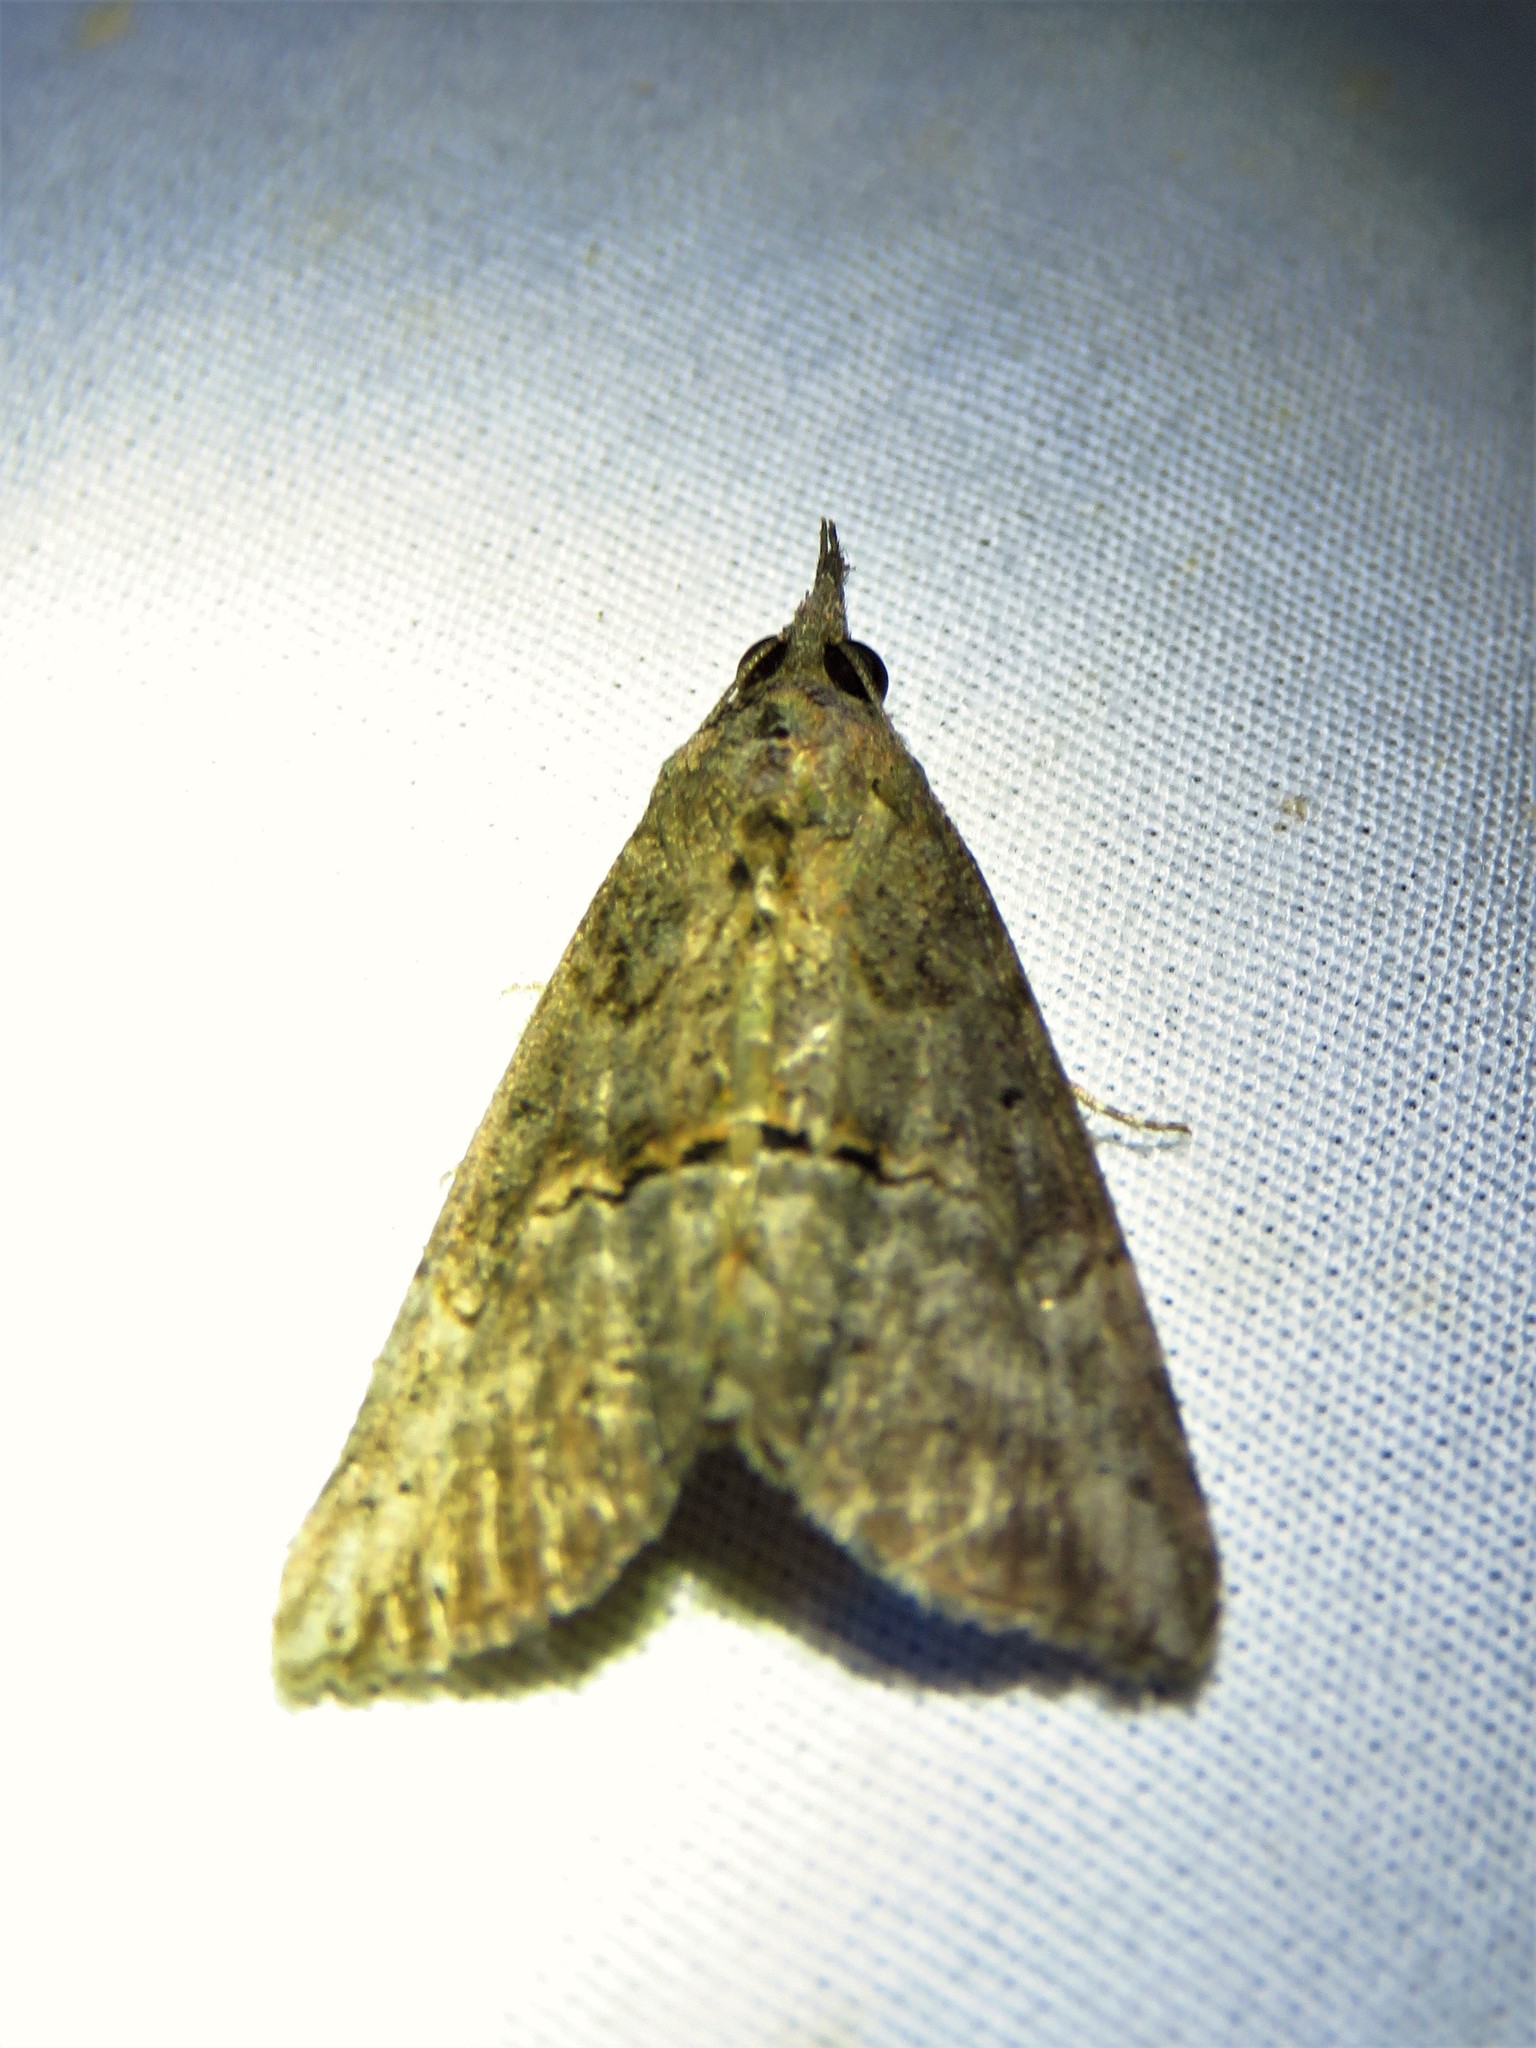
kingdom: Animalia
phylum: Arthropoda
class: Insecta
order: Lepidoptera
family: Erebidae
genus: Hypena
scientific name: Hypena scabra
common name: Green cloverworm
